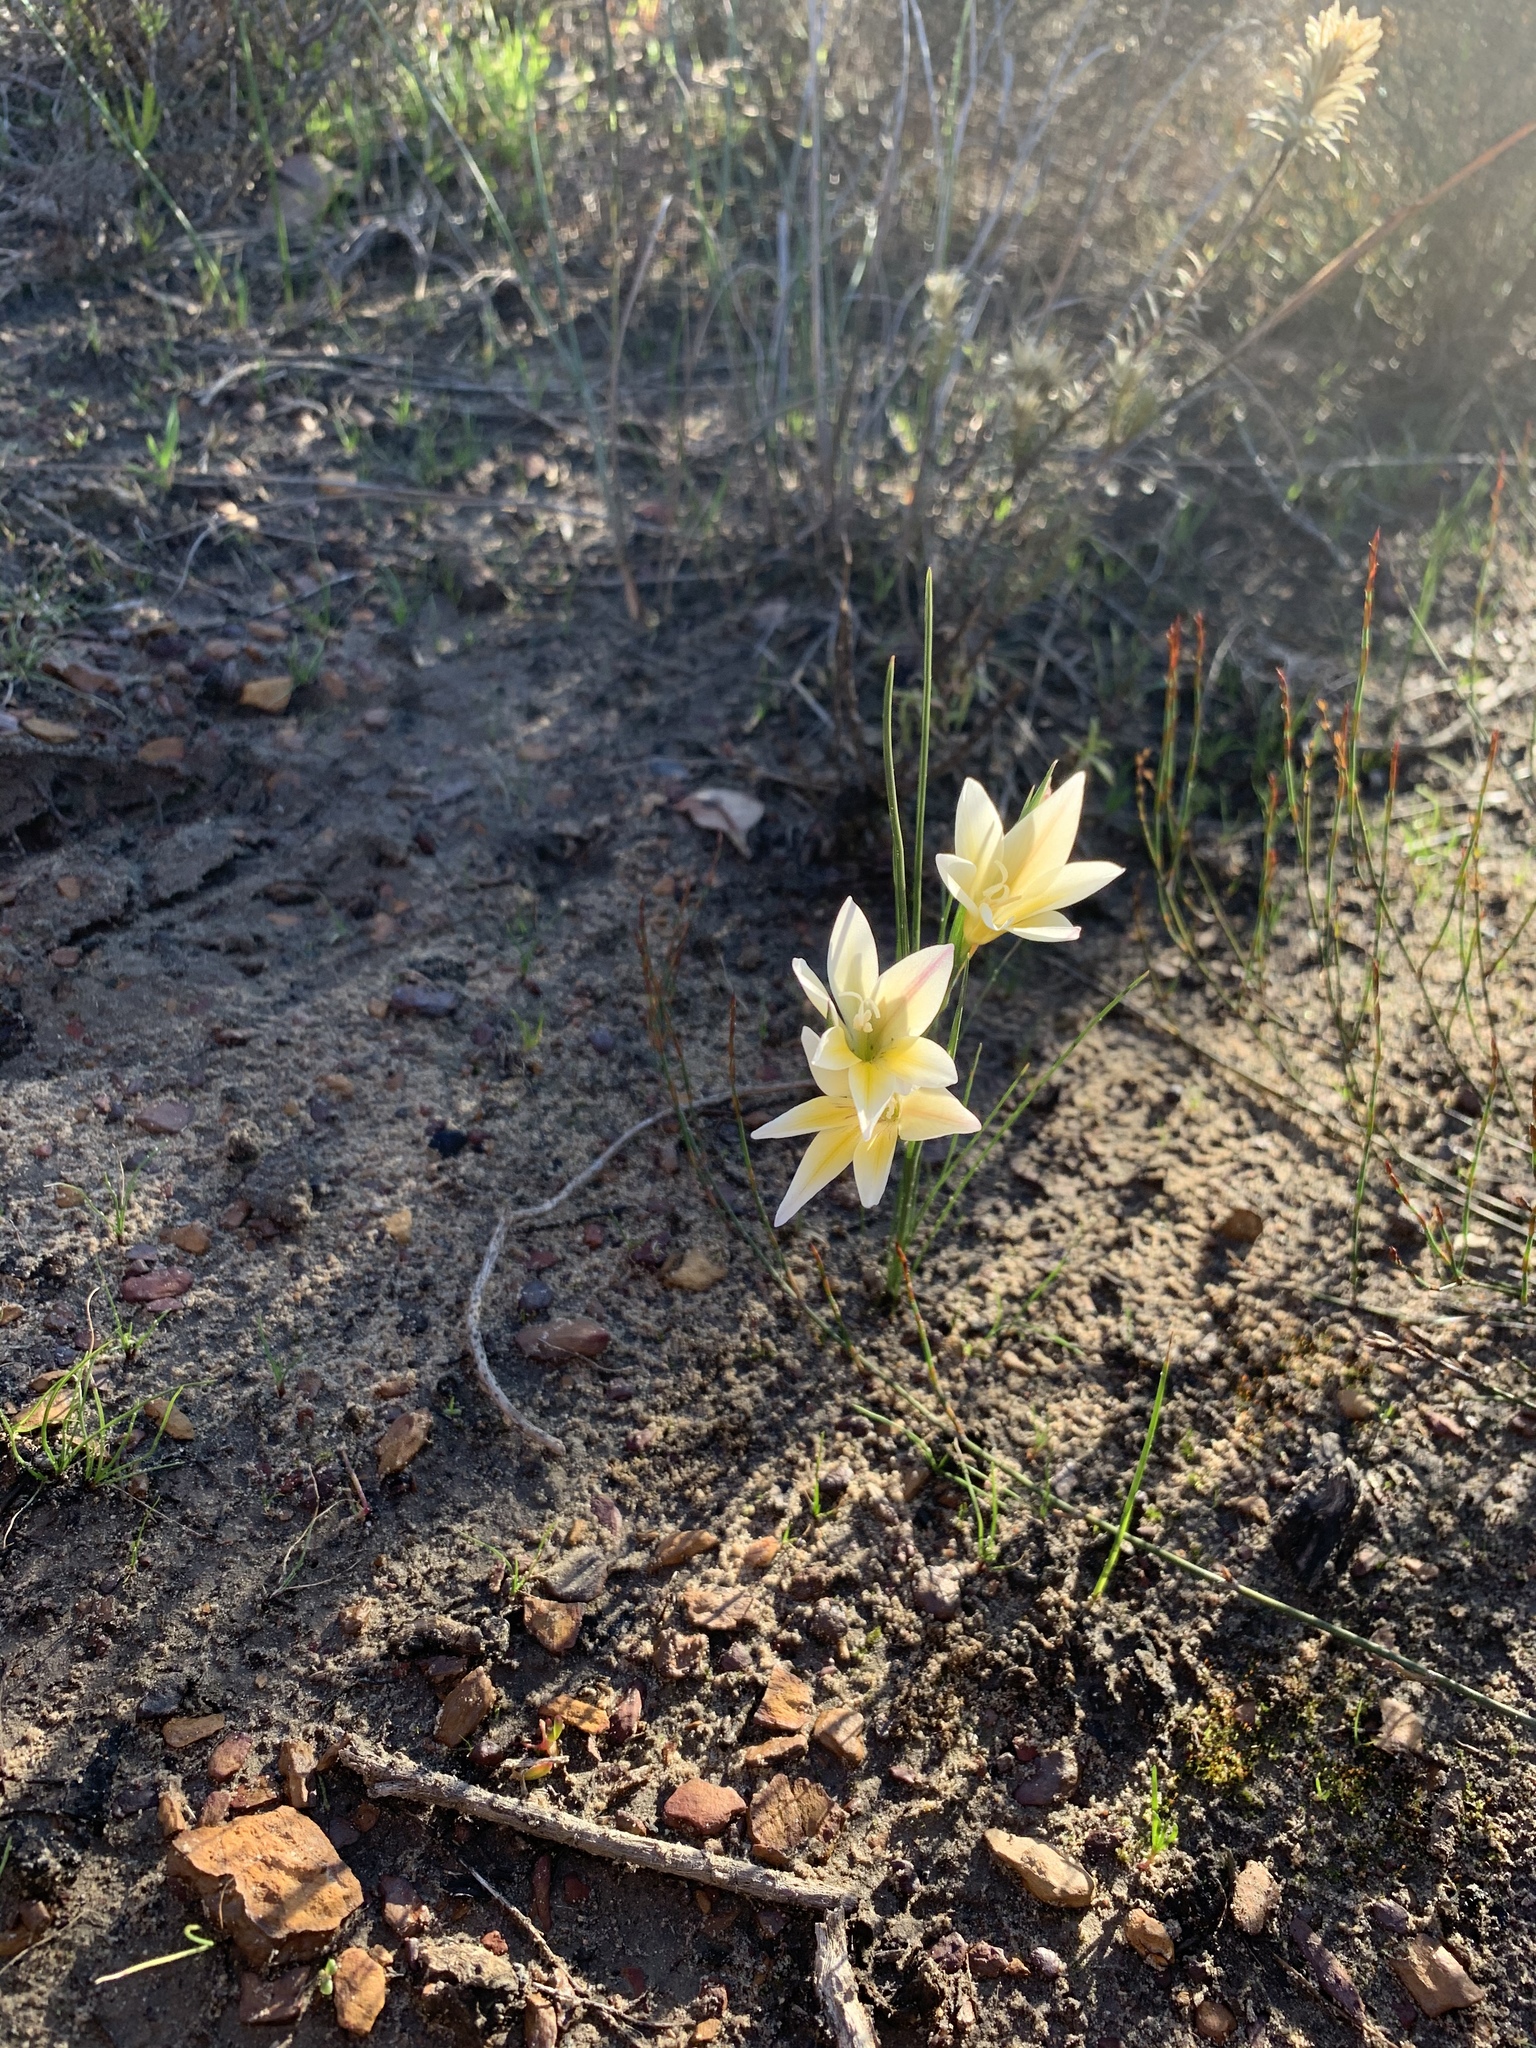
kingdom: Plantae
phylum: Tracheophyta
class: Liliopsida
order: Asparagales
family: Iridaceae
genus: Gladiolus
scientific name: Gladiolus trichonemifolius
